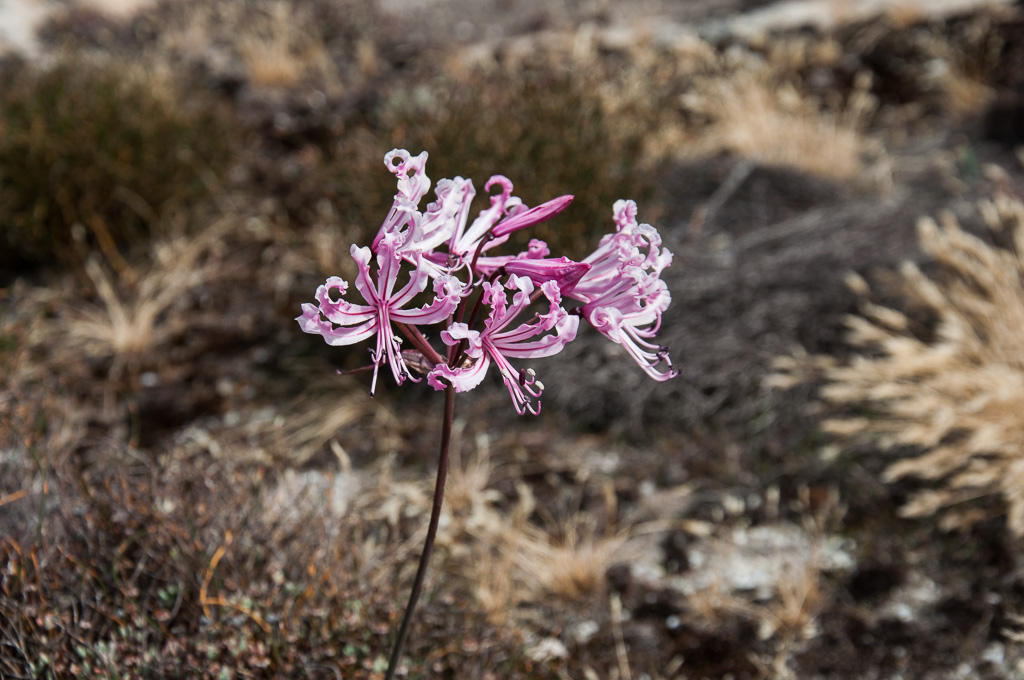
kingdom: Plantae
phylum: Tracheophyta
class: Liliopsida
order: Asparagales
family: Amaryllidaceae
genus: Nerine
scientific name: Nerine humilis
